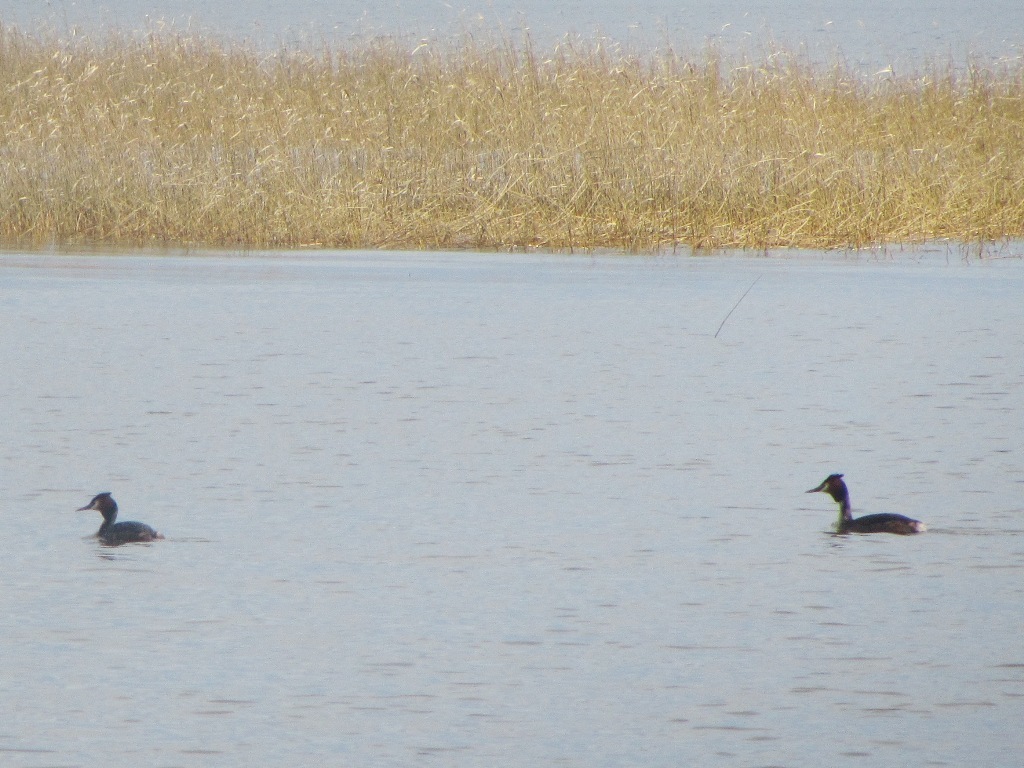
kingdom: Animalia
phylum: Chordata
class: Aves
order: Podicipediformes
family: Podicipedidae
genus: Podiceps
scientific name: Podiceps cristatus
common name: Great crested grebe
